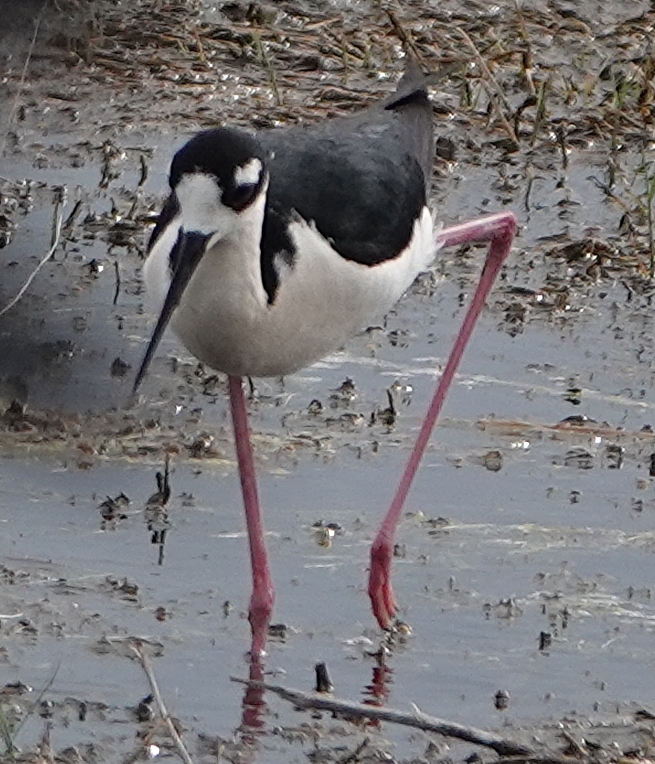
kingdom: Animalia
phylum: Chordata
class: Aves
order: Charadriiformes
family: Recurvirostridae
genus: Himantopus
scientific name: Himantopus mexicanus
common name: Black-necked stilt
